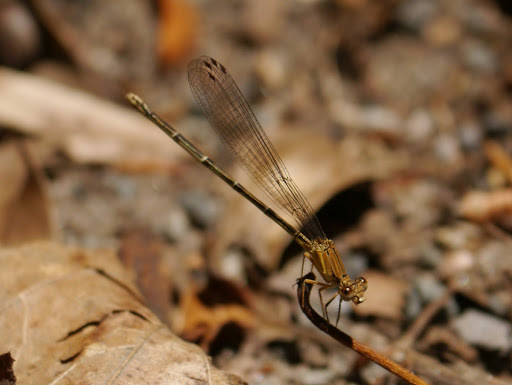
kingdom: Animalia
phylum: Arthropoda
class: Insecta
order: Odonata
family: Coenagrionidae
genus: Argia
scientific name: Argia apicalis
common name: Blue-fronted dancer
